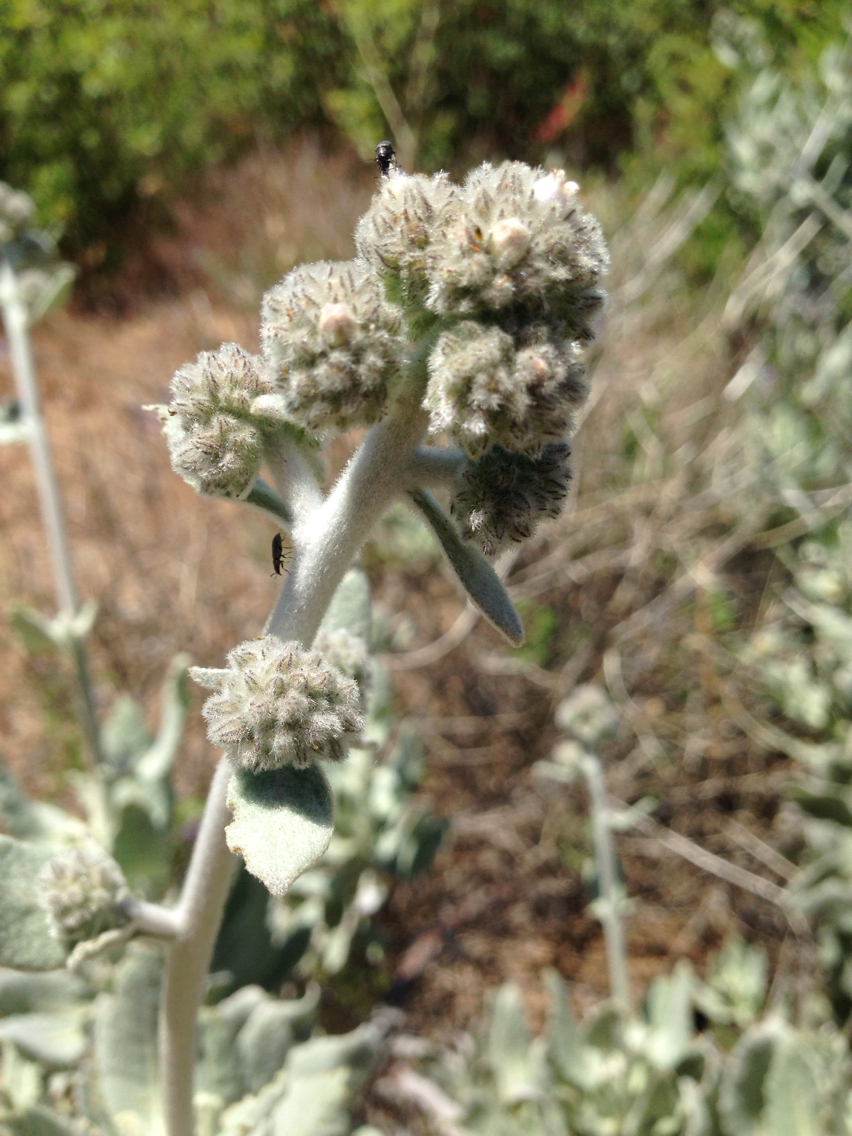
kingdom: Plantae
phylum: Tracheophyta
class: Magnoliopsida
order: Boraginales
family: Namaceae
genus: Eriodictyon
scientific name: Eriodictyon tomentosum
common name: Woolly yerba-santa
